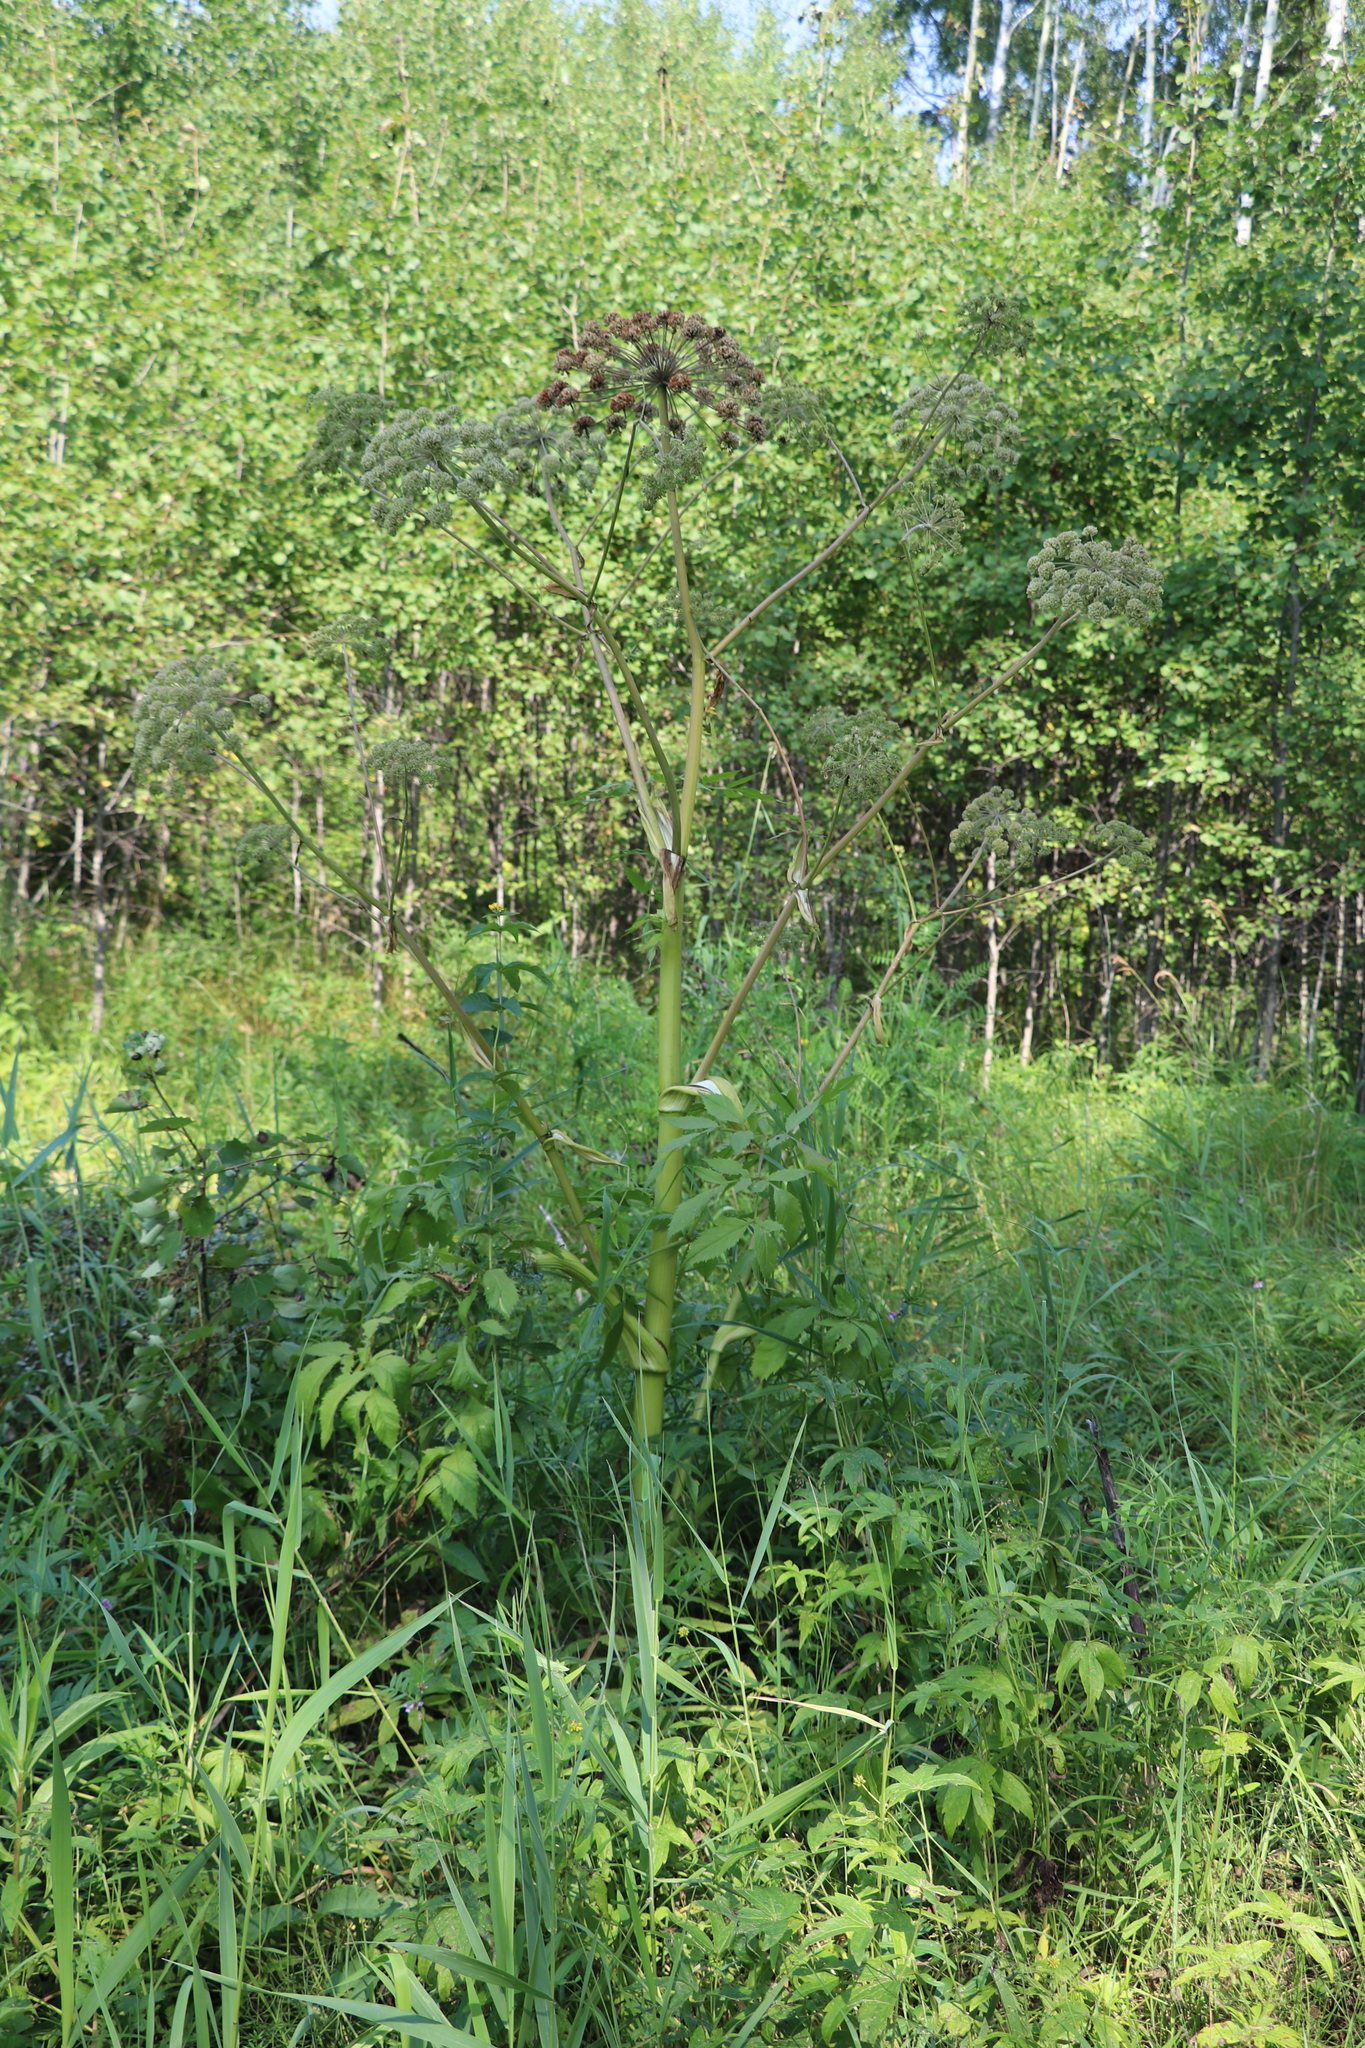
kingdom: Plantae
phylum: Tracheophyta
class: Magnoliopsida
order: Apiales
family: Apiaceae
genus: Angelica
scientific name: Angelica decurrens
